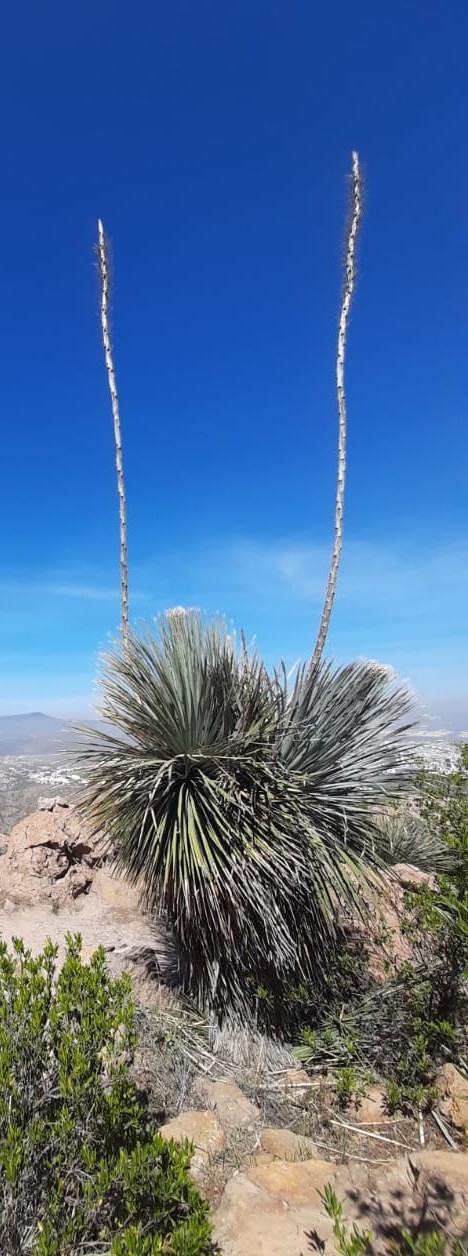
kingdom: Plantae
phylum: Tracheophyta
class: Liliopsida
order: Asparagales
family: Asparagaceae
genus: Dasylirion
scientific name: Dasylirion parryanum
